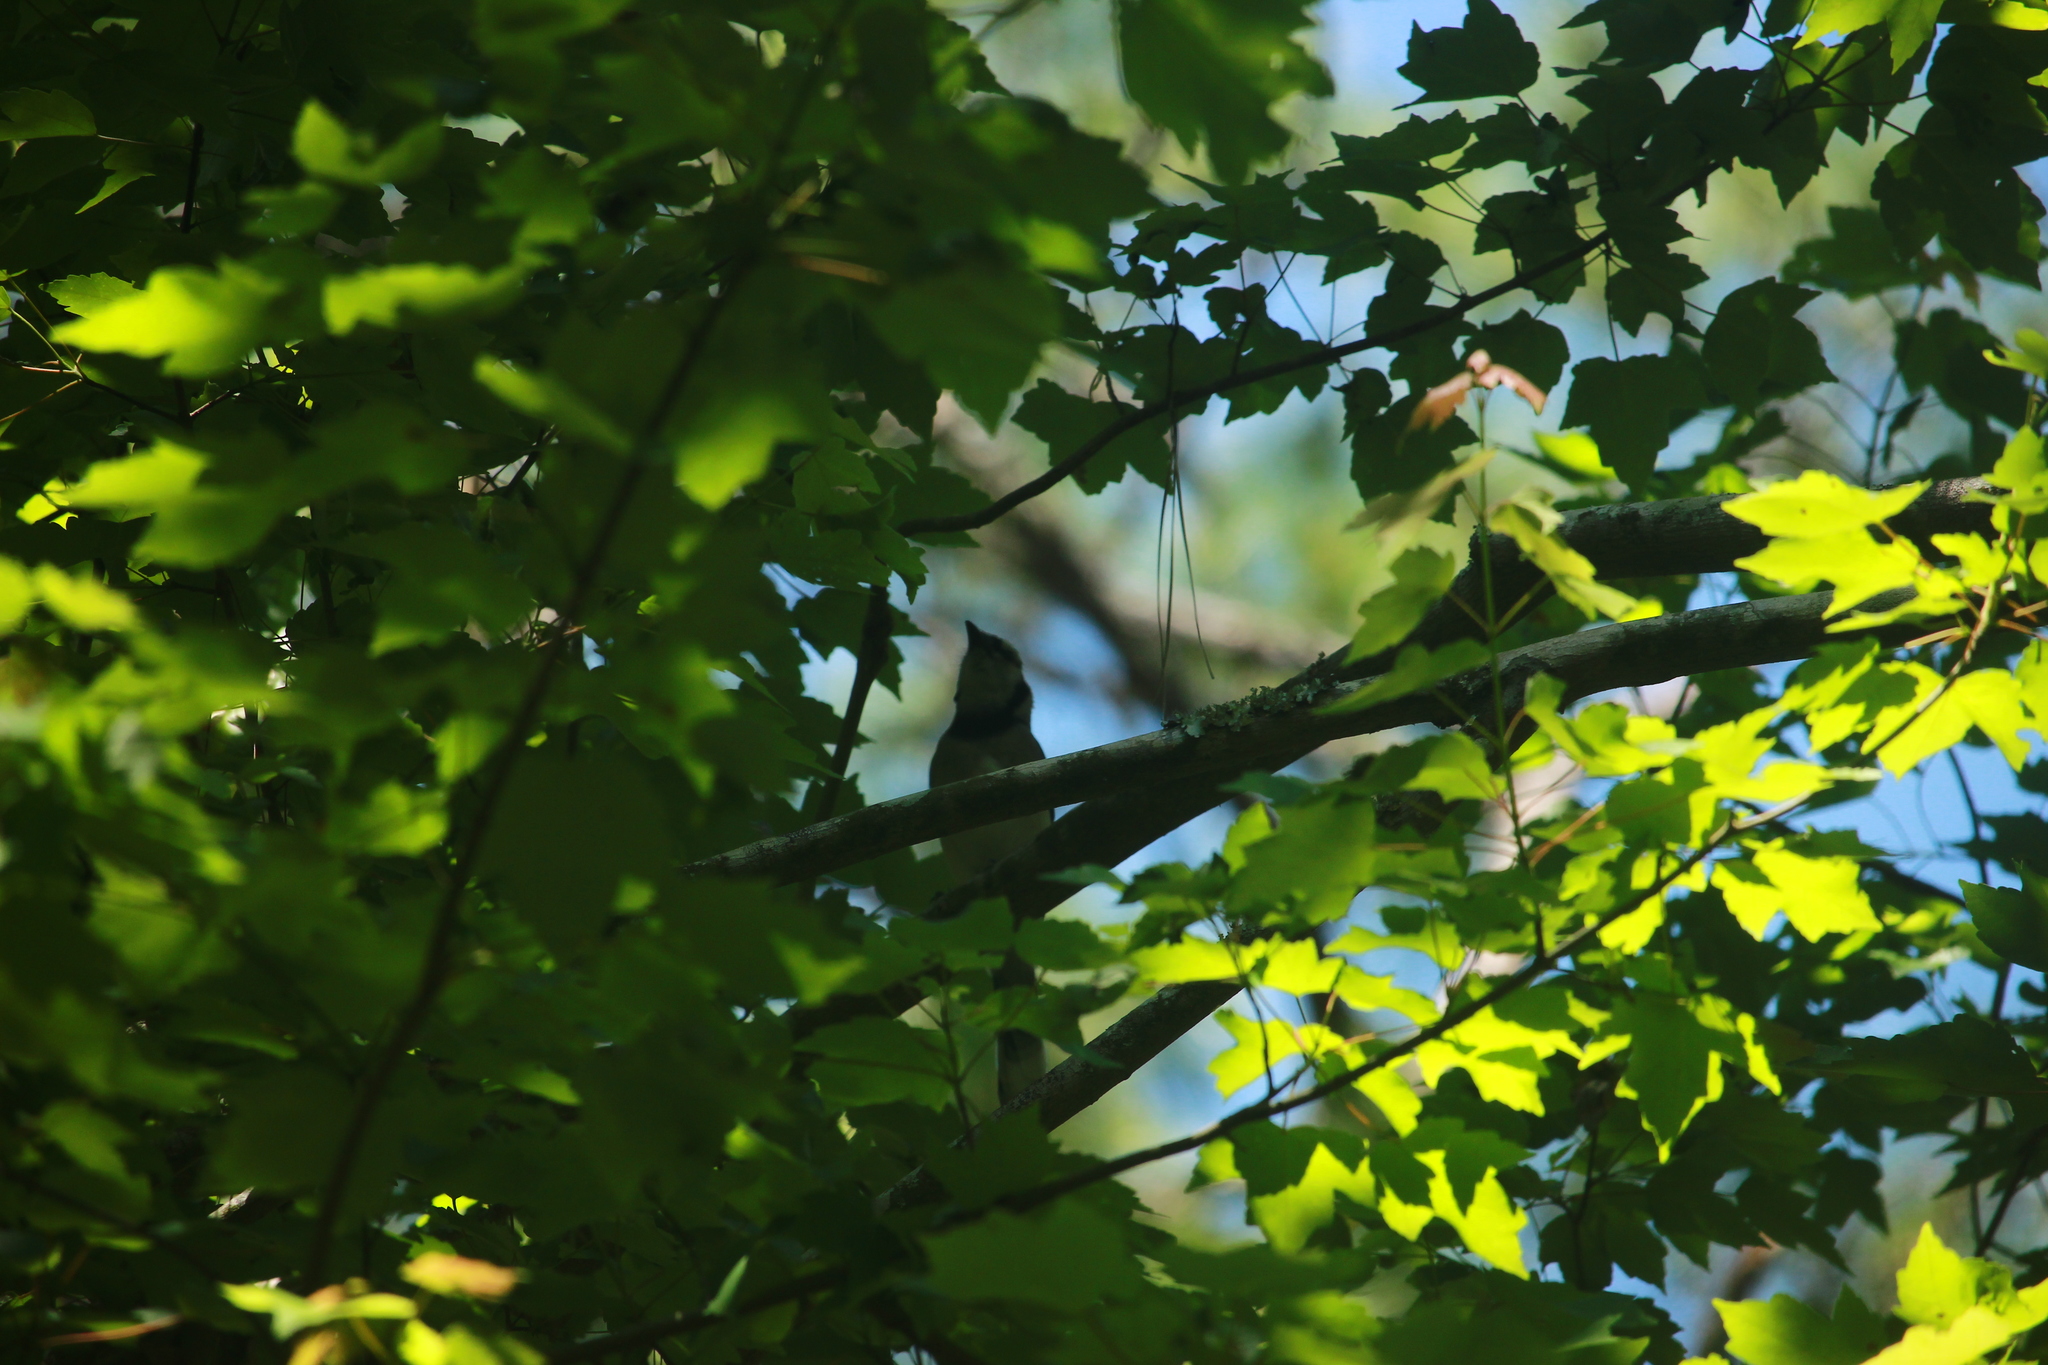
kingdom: Animalia
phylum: Chordata
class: Aves
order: Passeriformes
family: Corvidae
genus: Cyanocitta
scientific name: Cyanocitta cristata
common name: Blue jay
